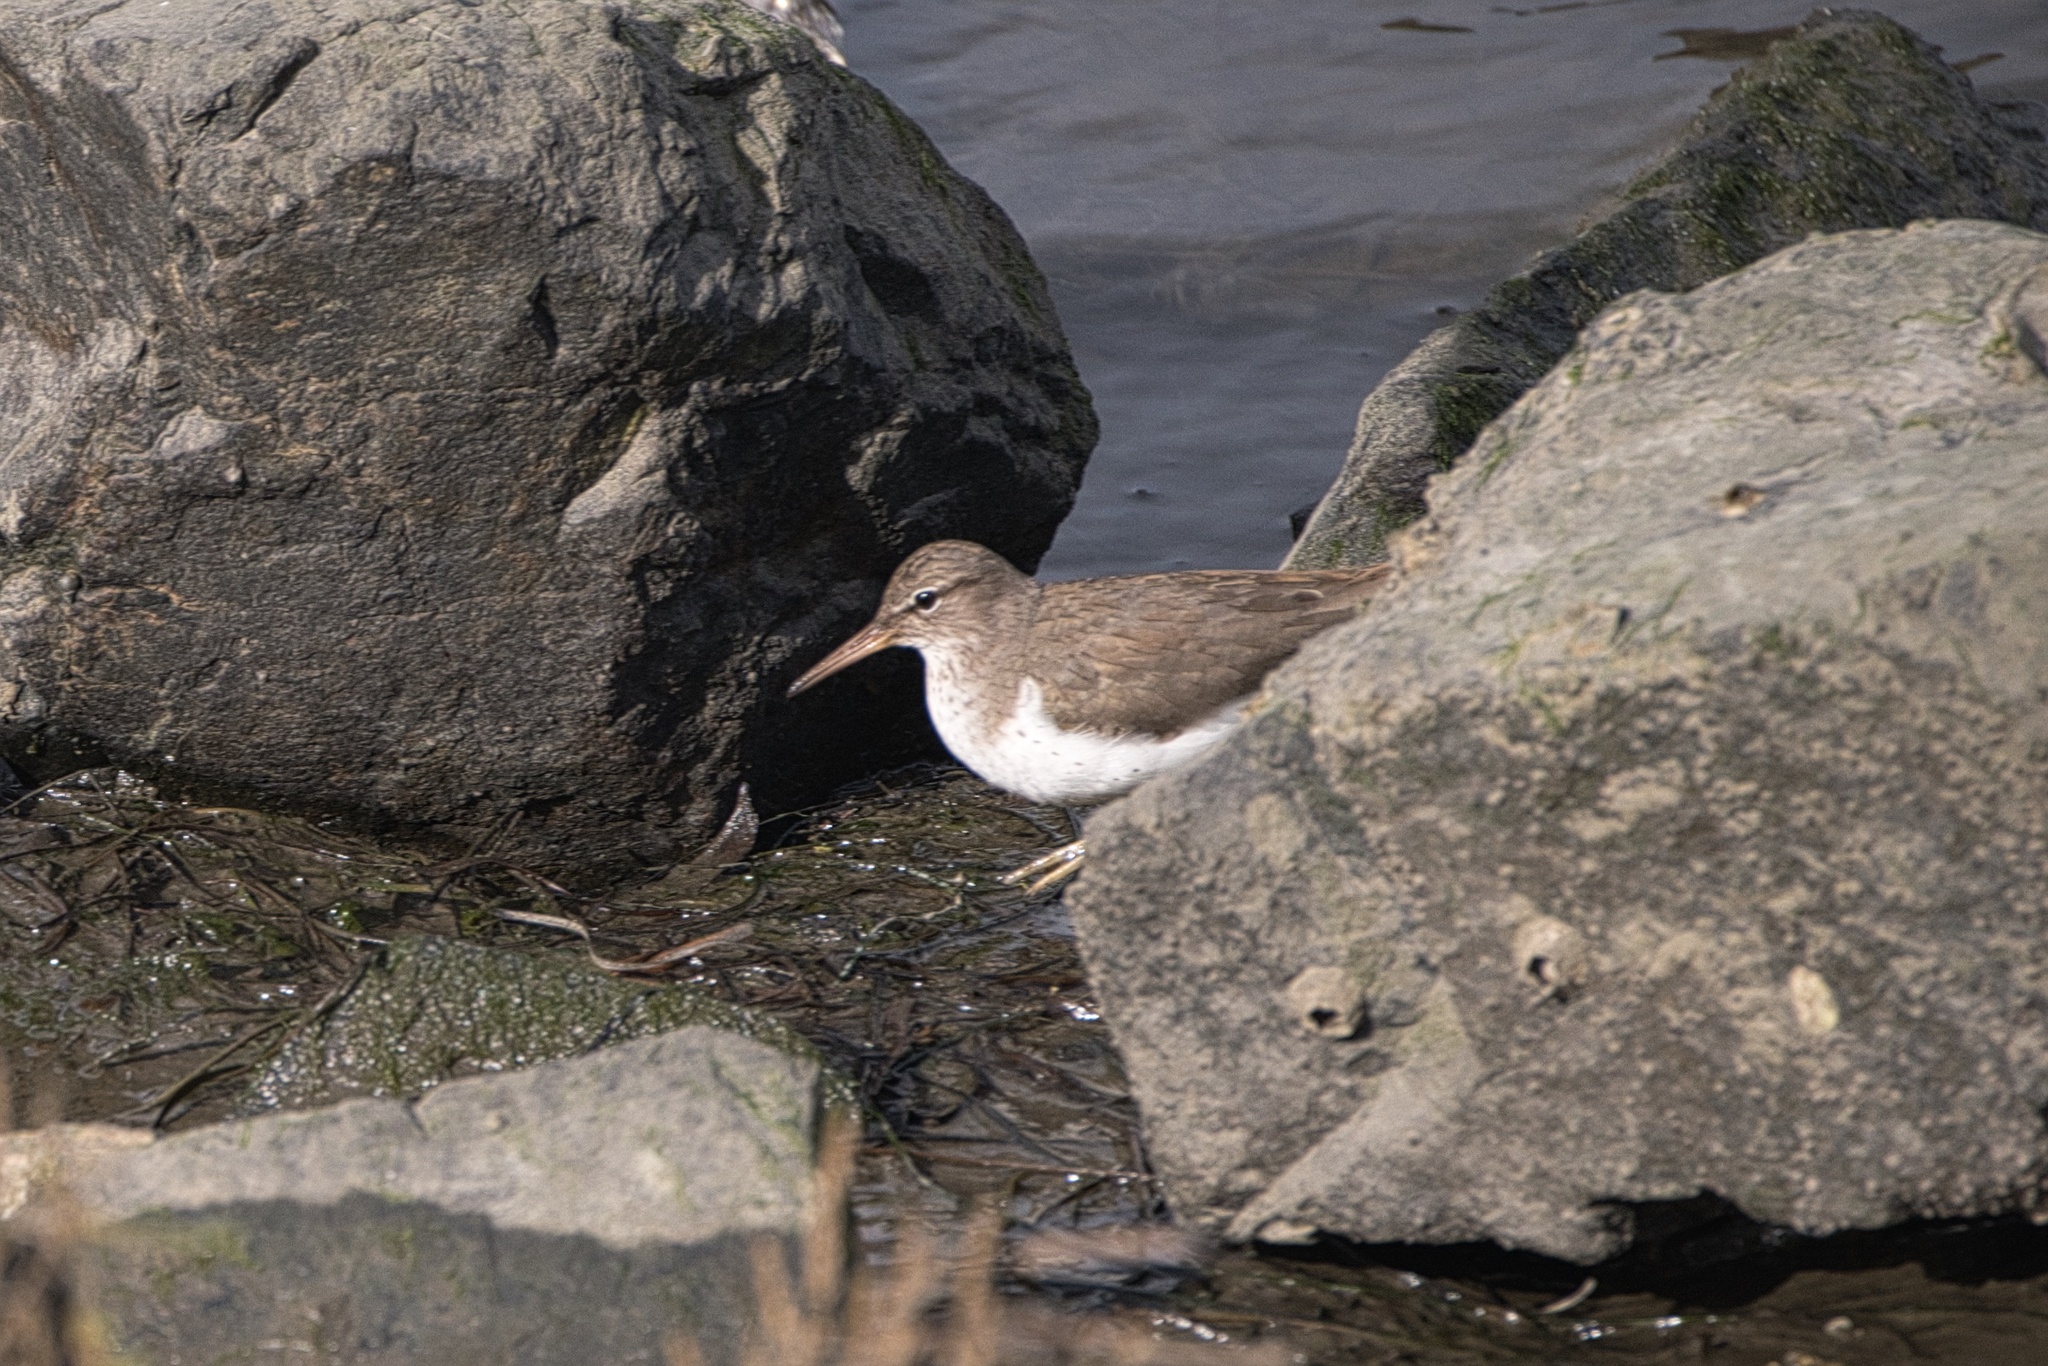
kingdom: Animalia
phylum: Chordata
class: Aves
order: Charadriiformes
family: Scolopacidae
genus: Actitis
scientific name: Actitis macularius
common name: Spotted sandpiper
